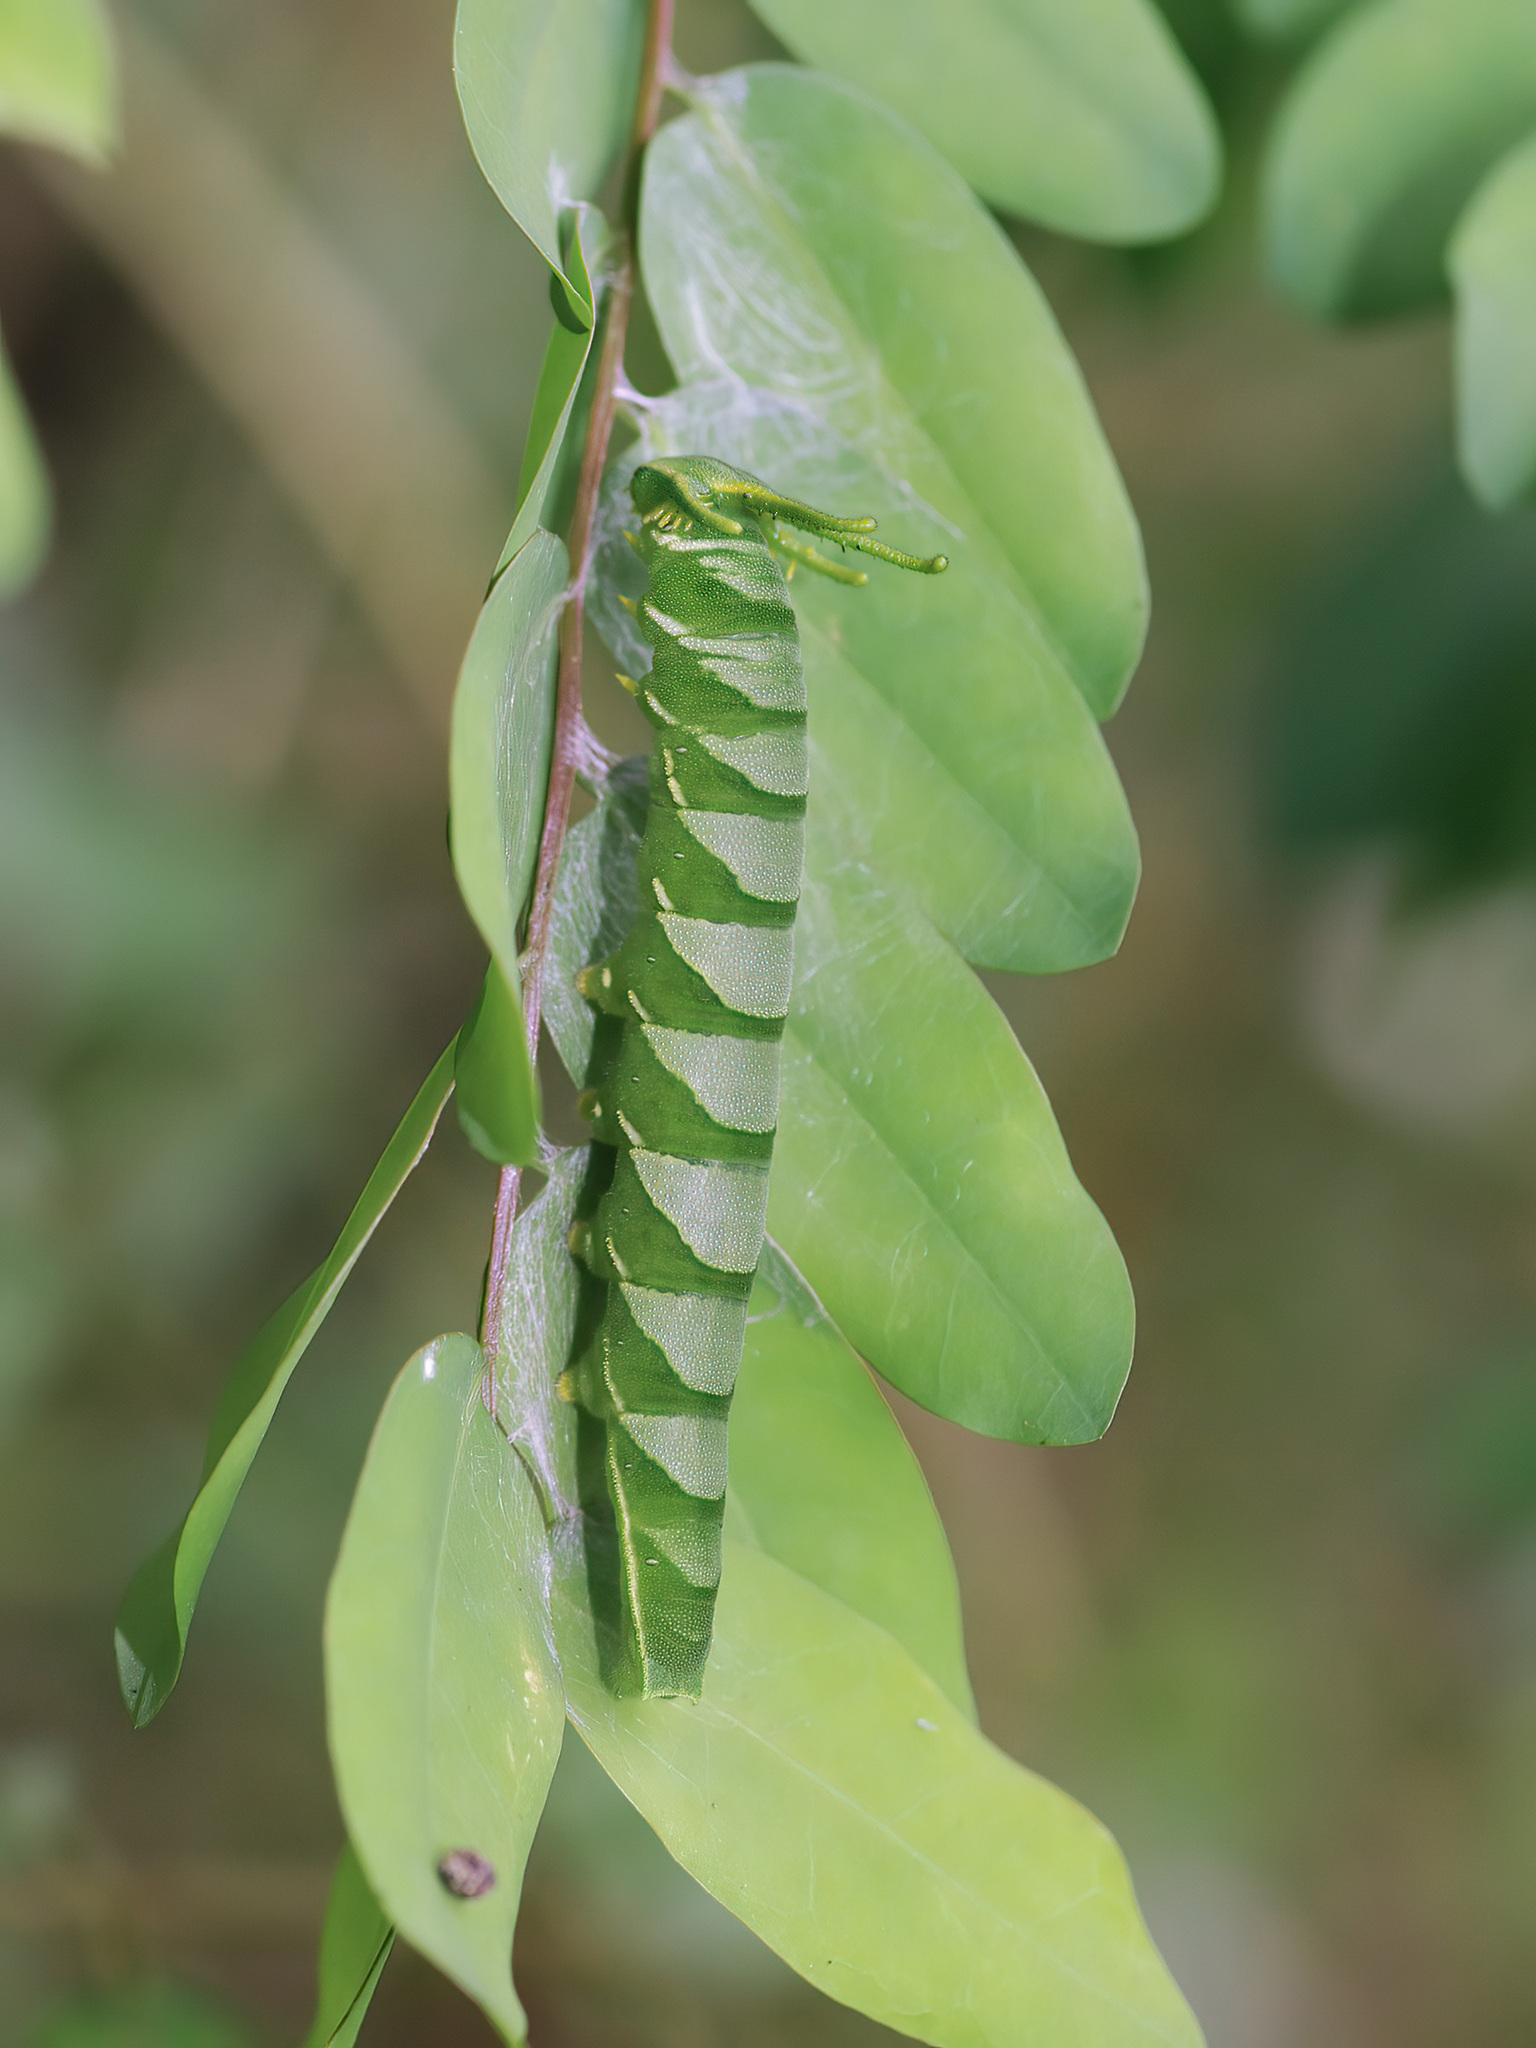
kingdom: Animalia
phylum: Arthropoda
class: Insecta
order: Lepidoptera
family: Nymphalidae
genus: Polyura
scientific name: Polyura hebe
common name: Plain nawab
